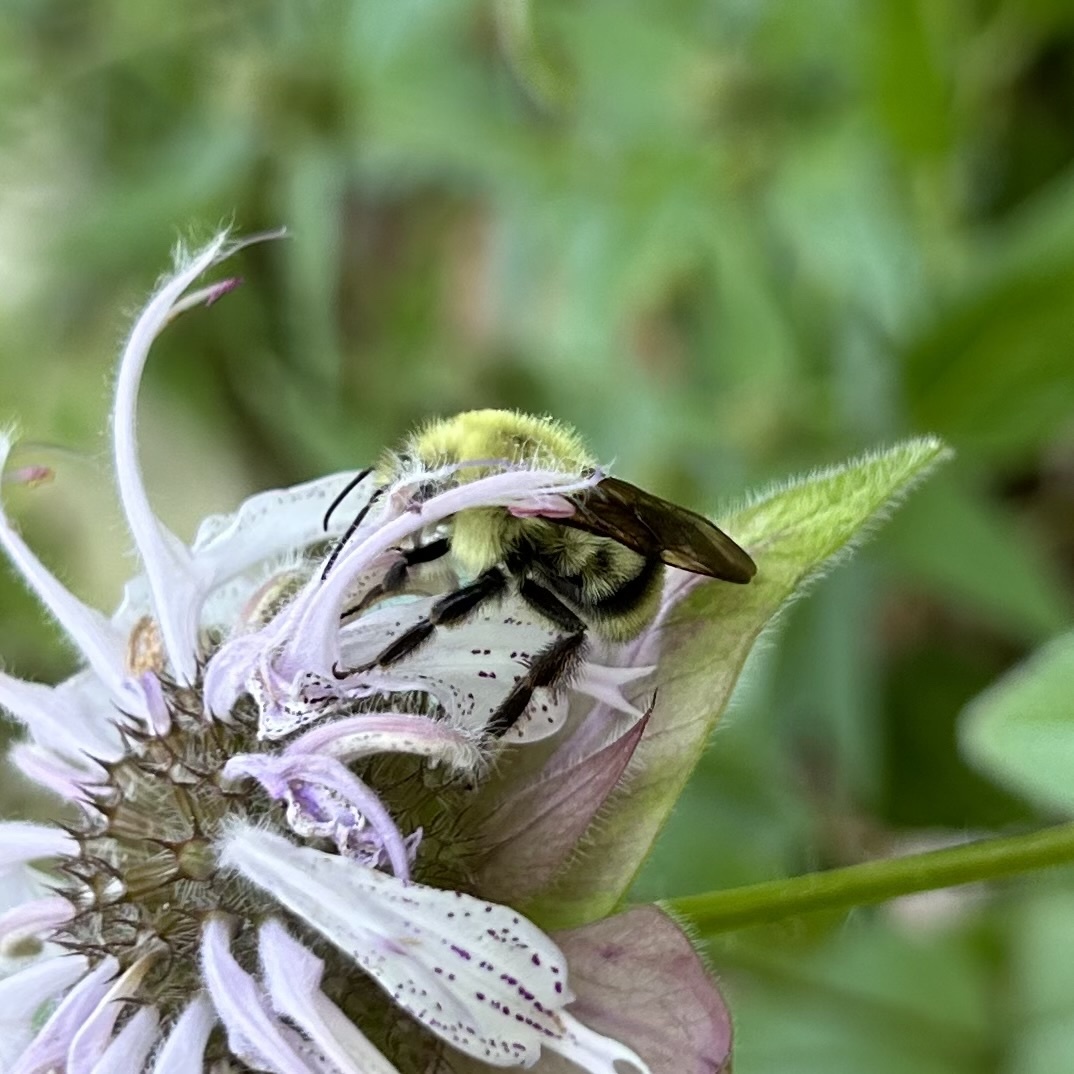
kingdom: Animalia
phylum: Arthropoda
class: Insecta
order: Hymenoptera
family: Apidae
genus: Bombus
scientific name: Bombus bimaculatus
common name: Two-spotted bumble bee
